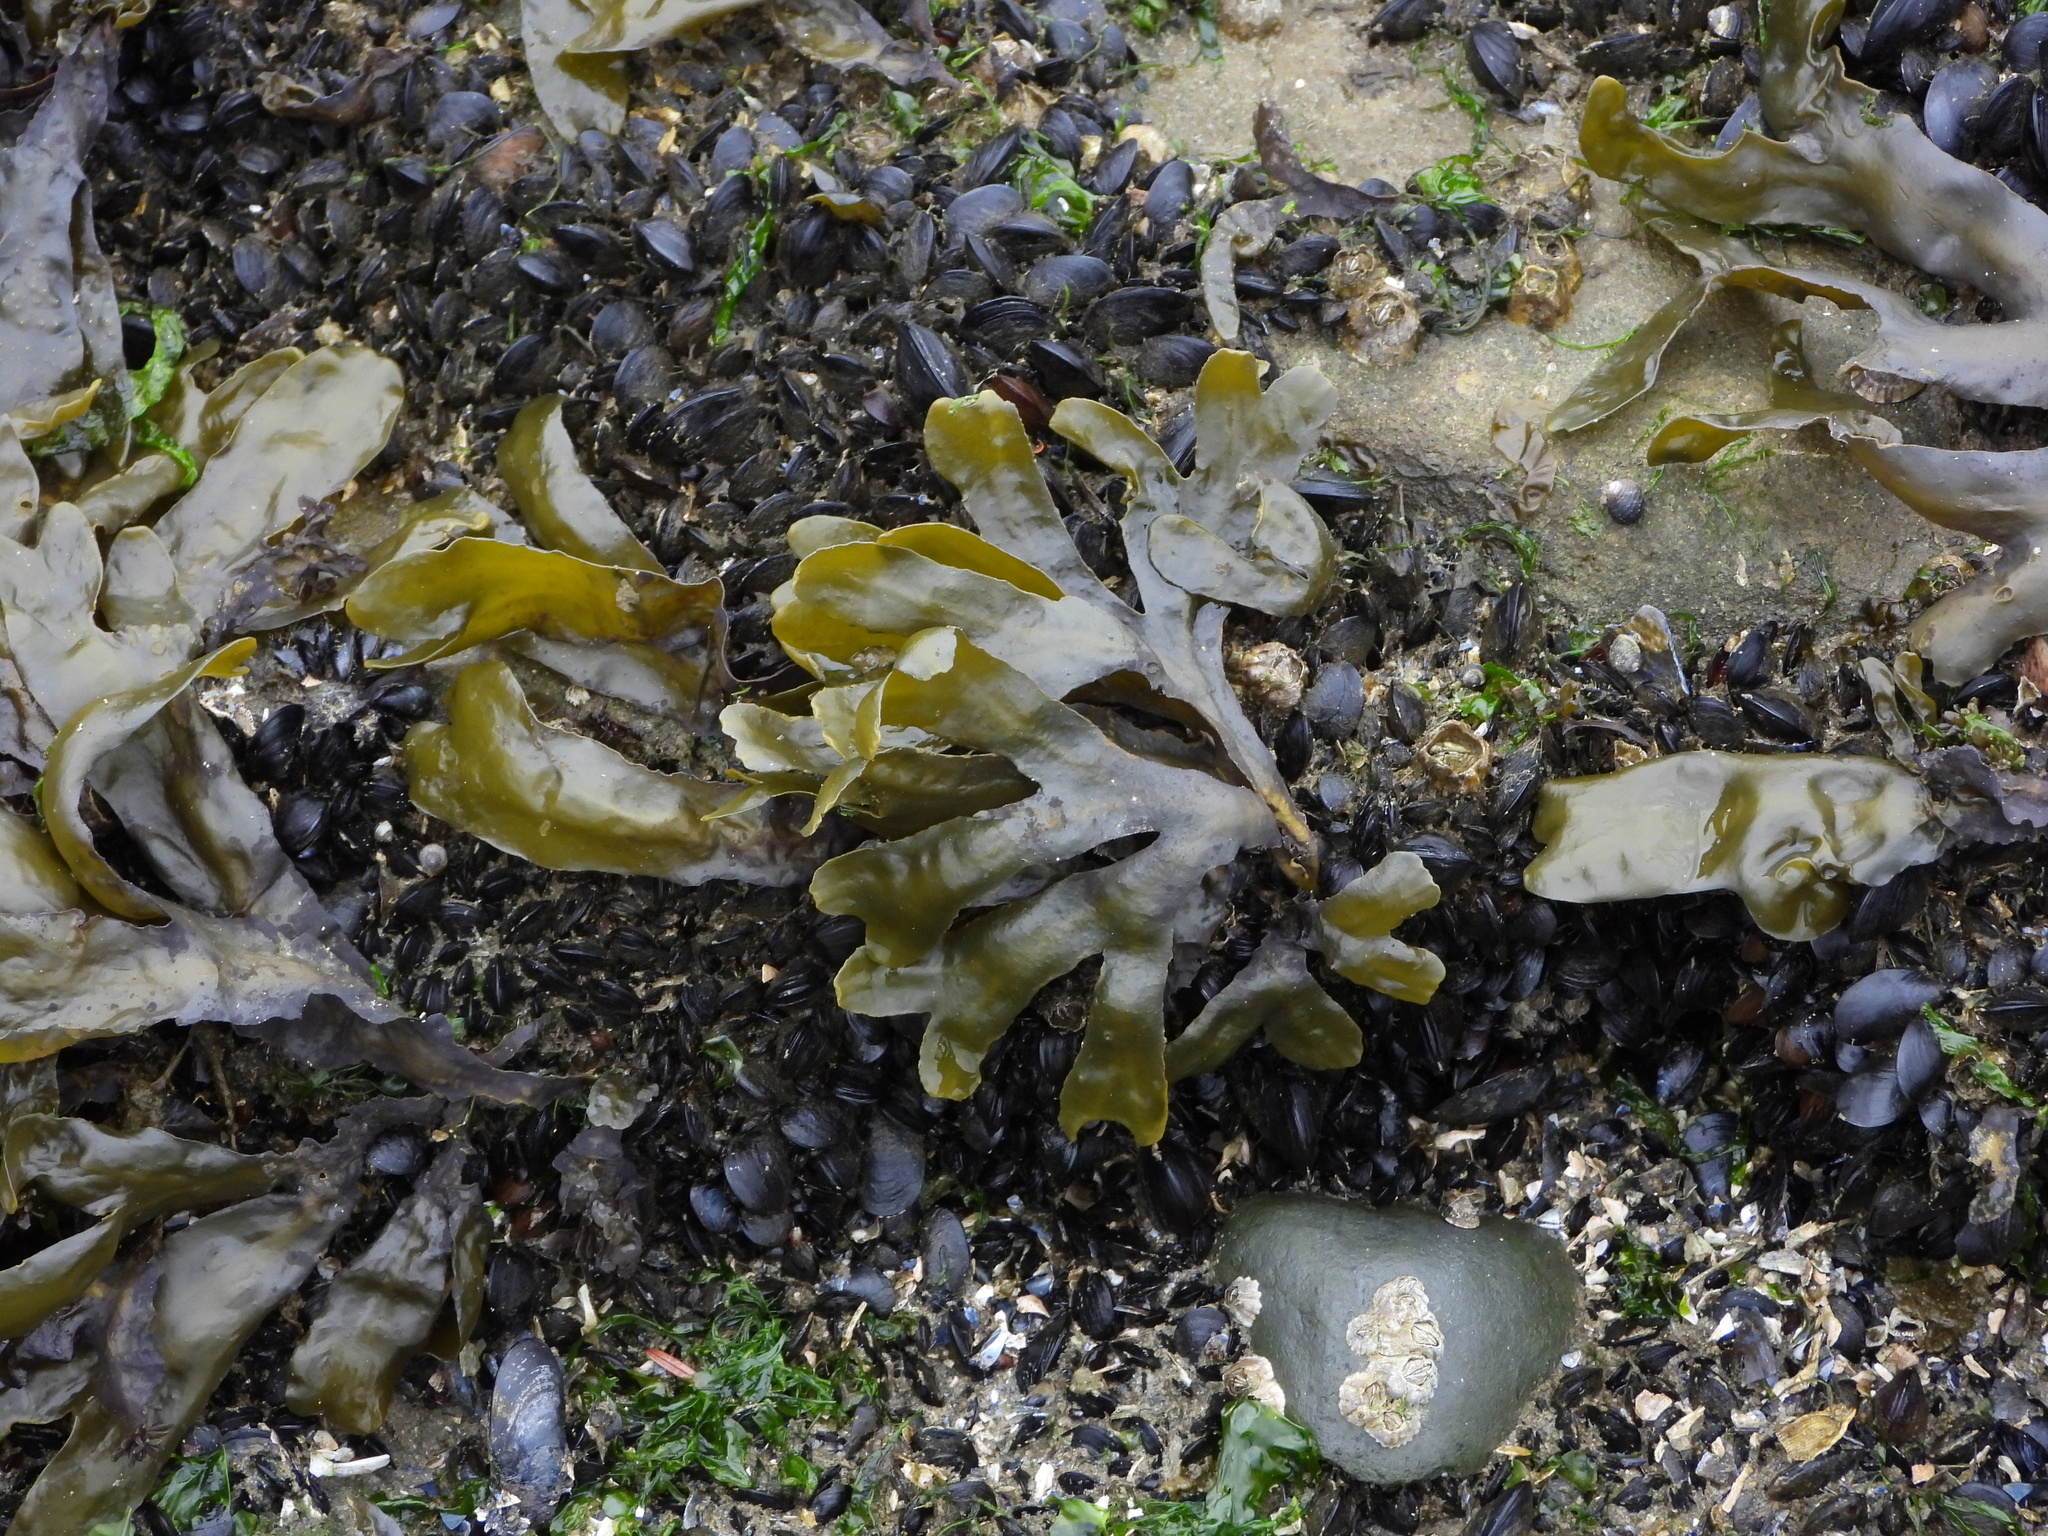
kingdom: Chromista
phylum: Ochrophyta
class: Phaeophyceae
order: Fucales
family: Fucaceae
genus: Fucus
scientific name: Fucus distichus
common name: Rockweed
